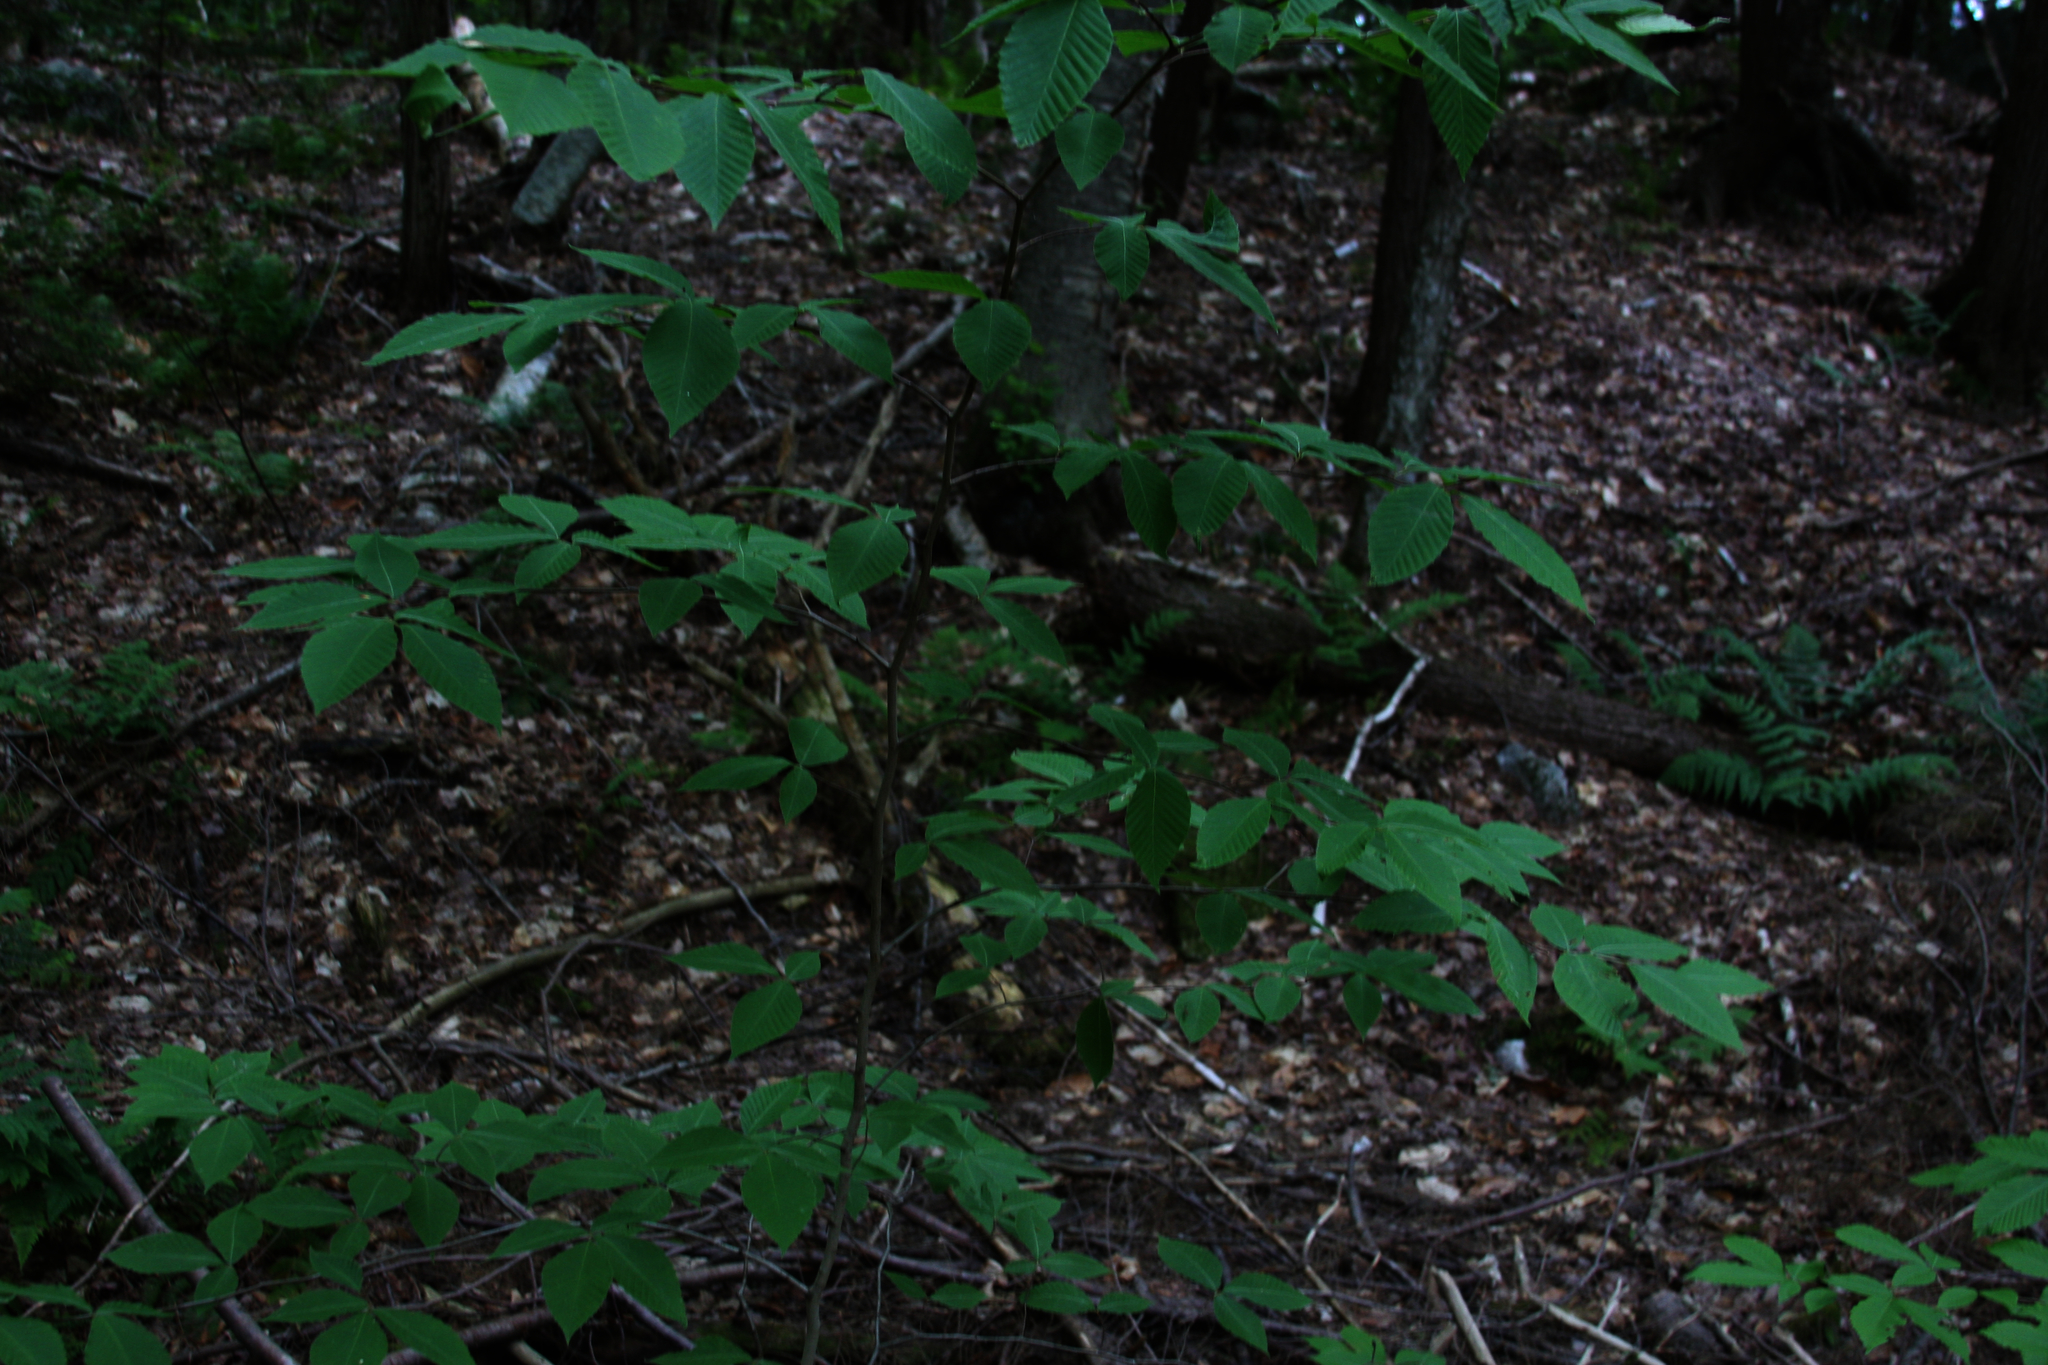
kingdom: Plantae
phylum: Tracheophyta
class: Magnoliopsida
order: Fagales
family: Fagaceae
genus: Fagus
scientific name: Fagus grandifolia
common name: American beech
